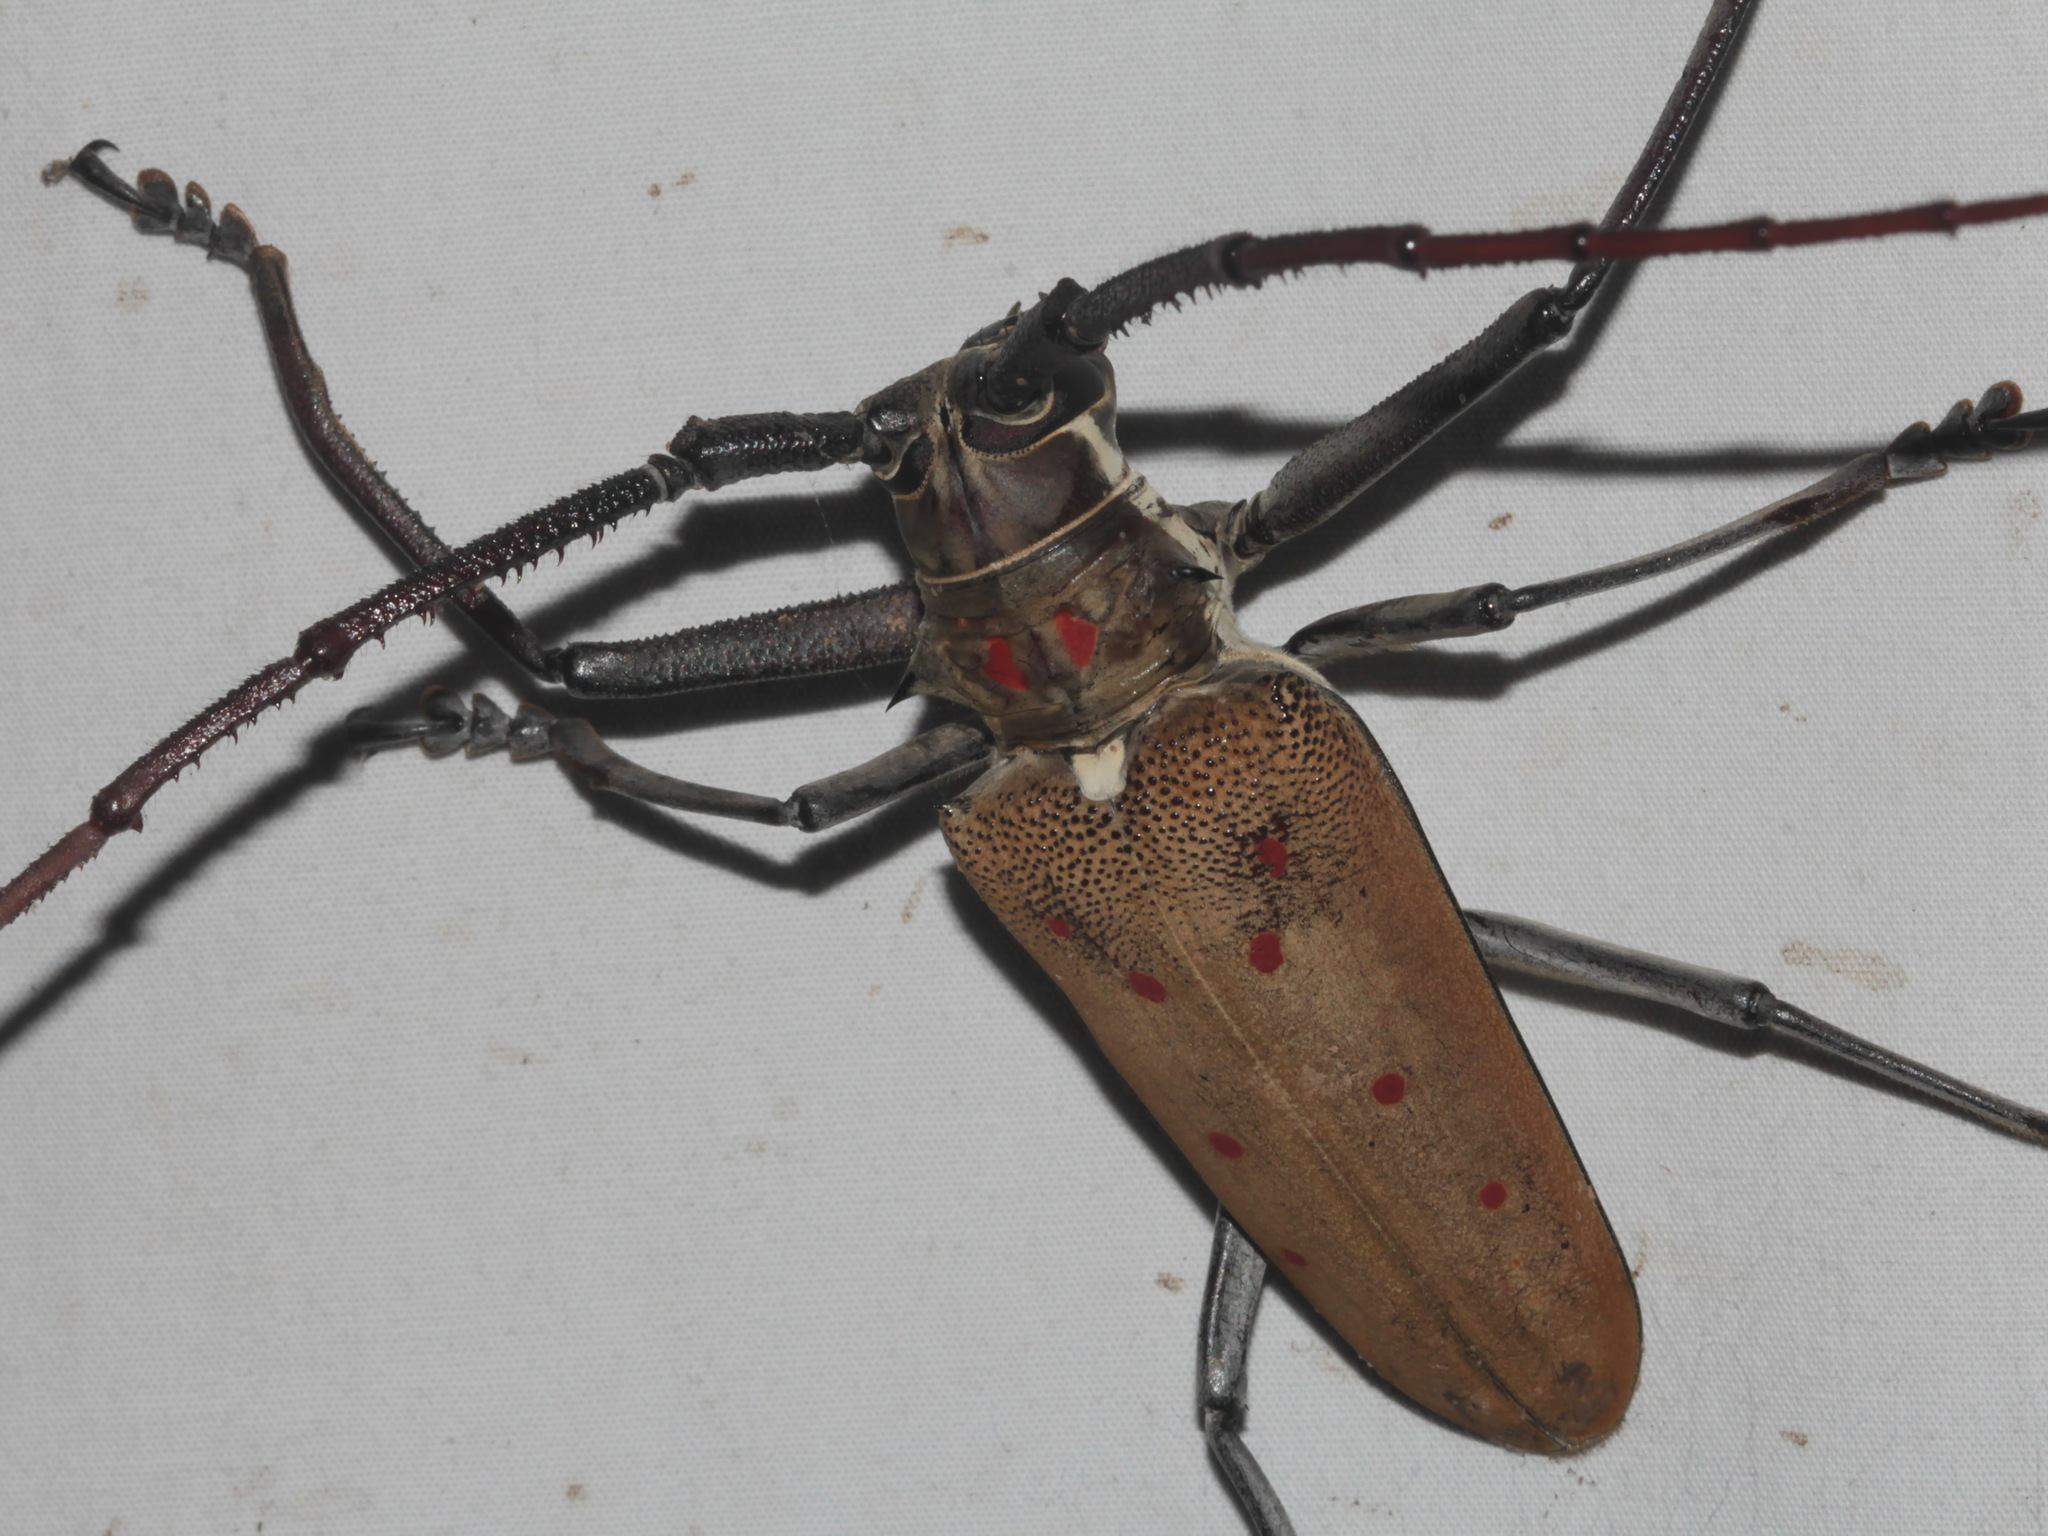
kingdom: Animalia
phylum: Arthropoda
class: Insecta
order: Coleoptera
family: Cerambycidae
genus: Batocera
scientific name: Batocera numitor
